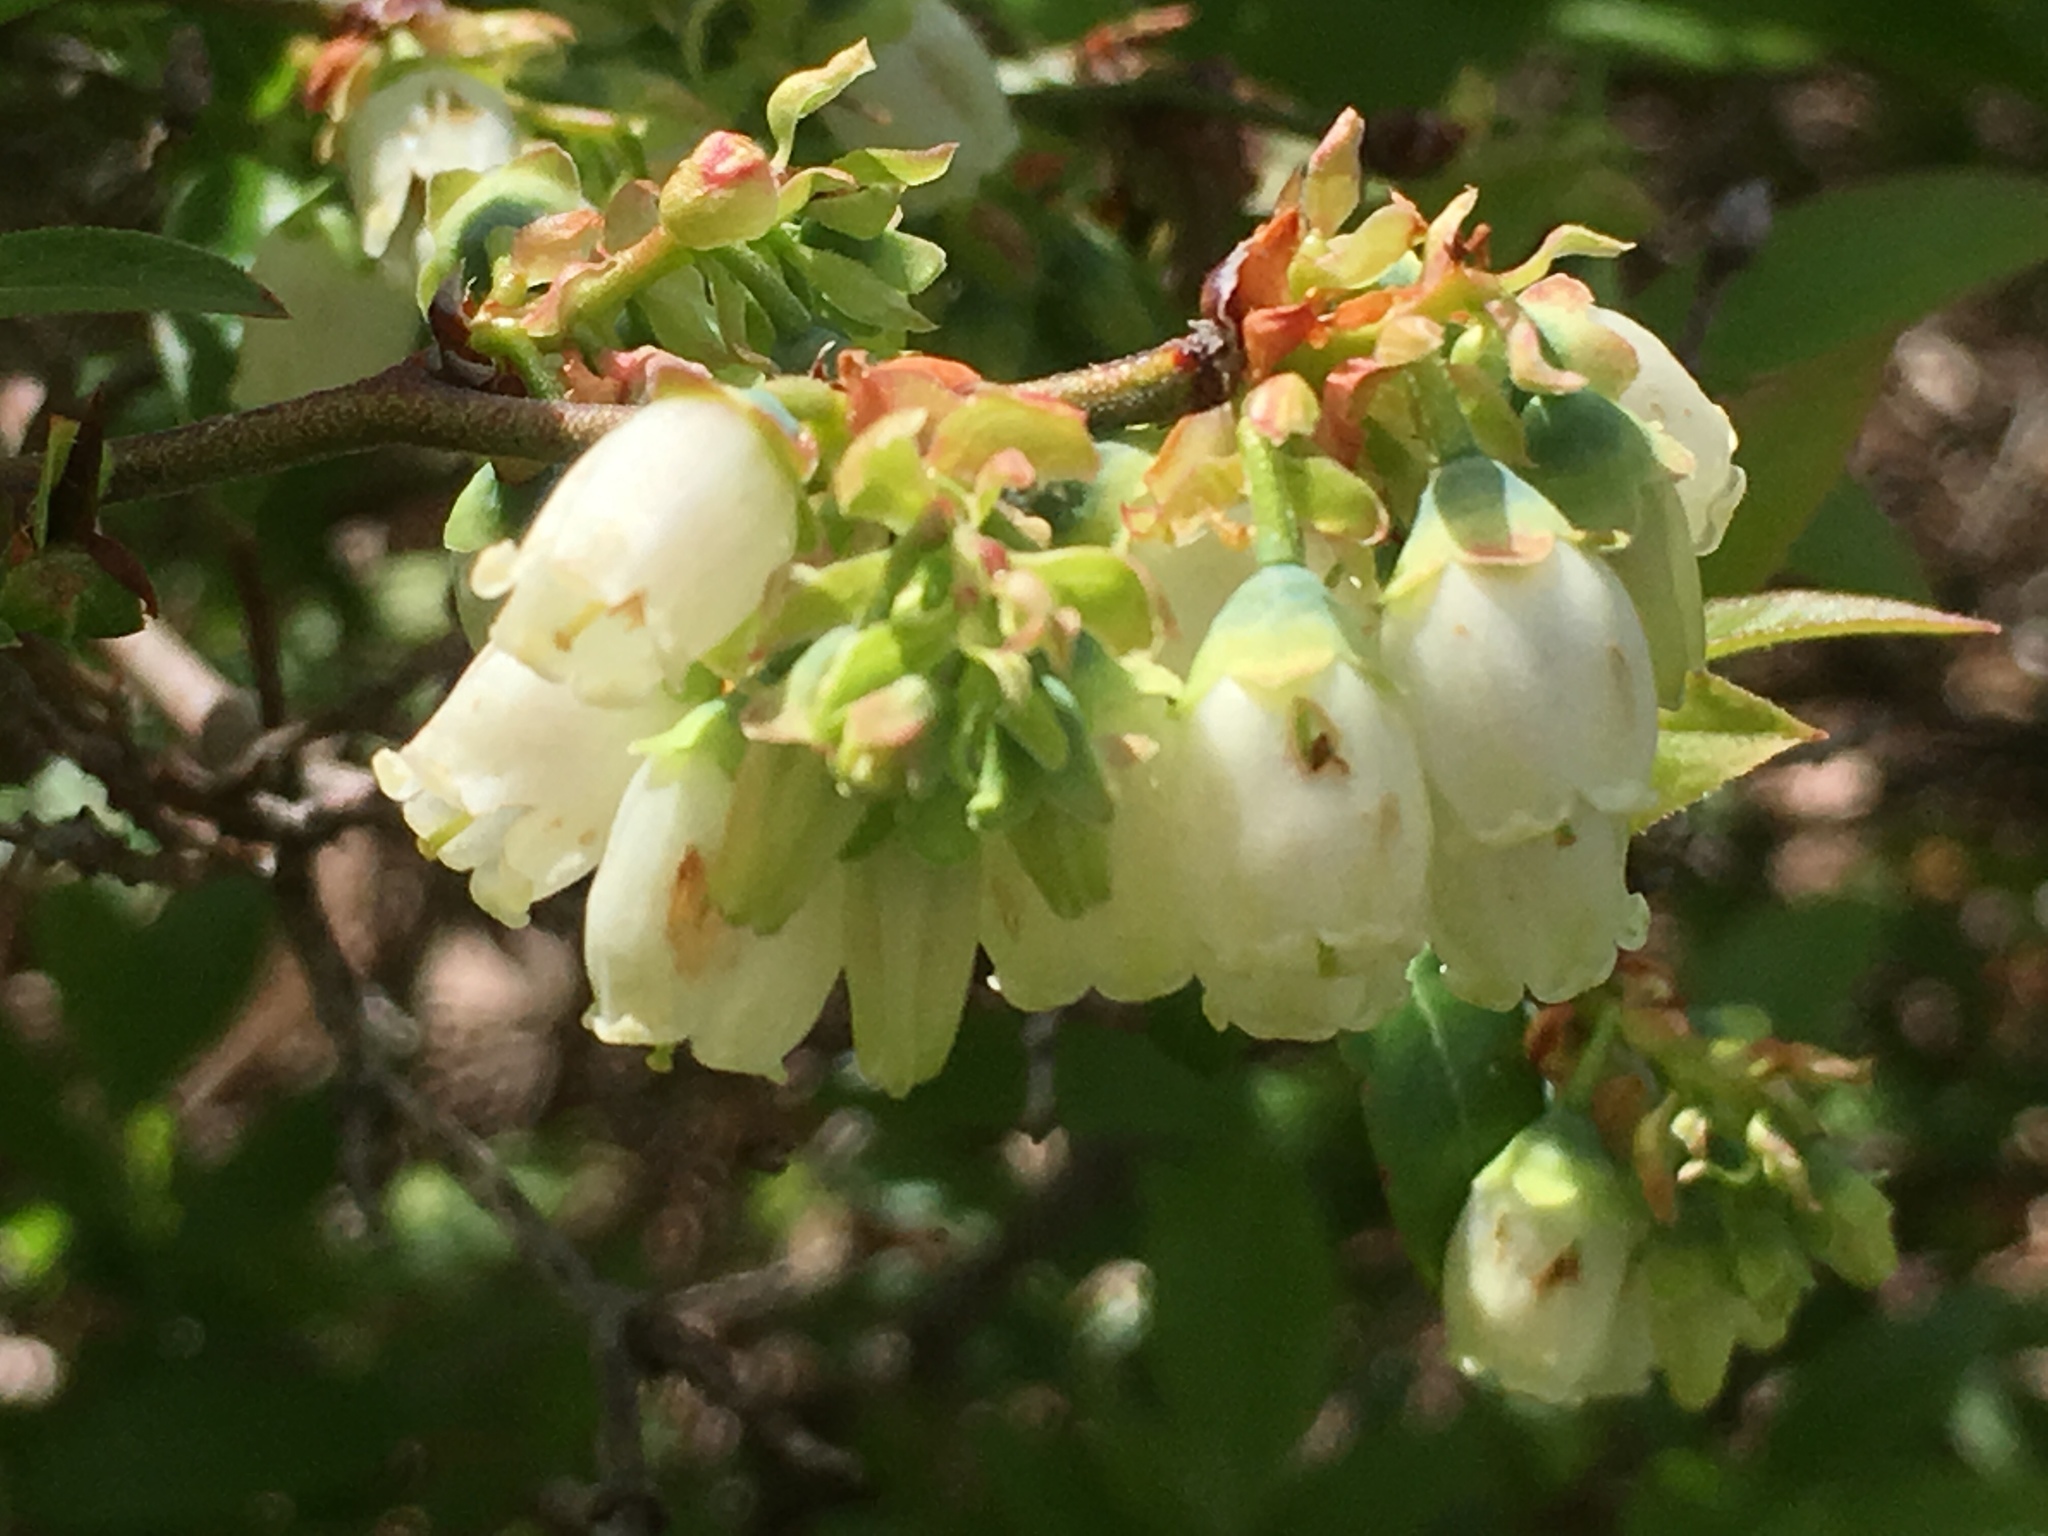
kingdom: Plantae
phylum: Tracheophyta
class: Magnoliopsida
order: Ericales
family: Ericaceae
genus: Vaccinium
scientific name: Vaccinium angustifolium
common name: Early lowbush blueberry
